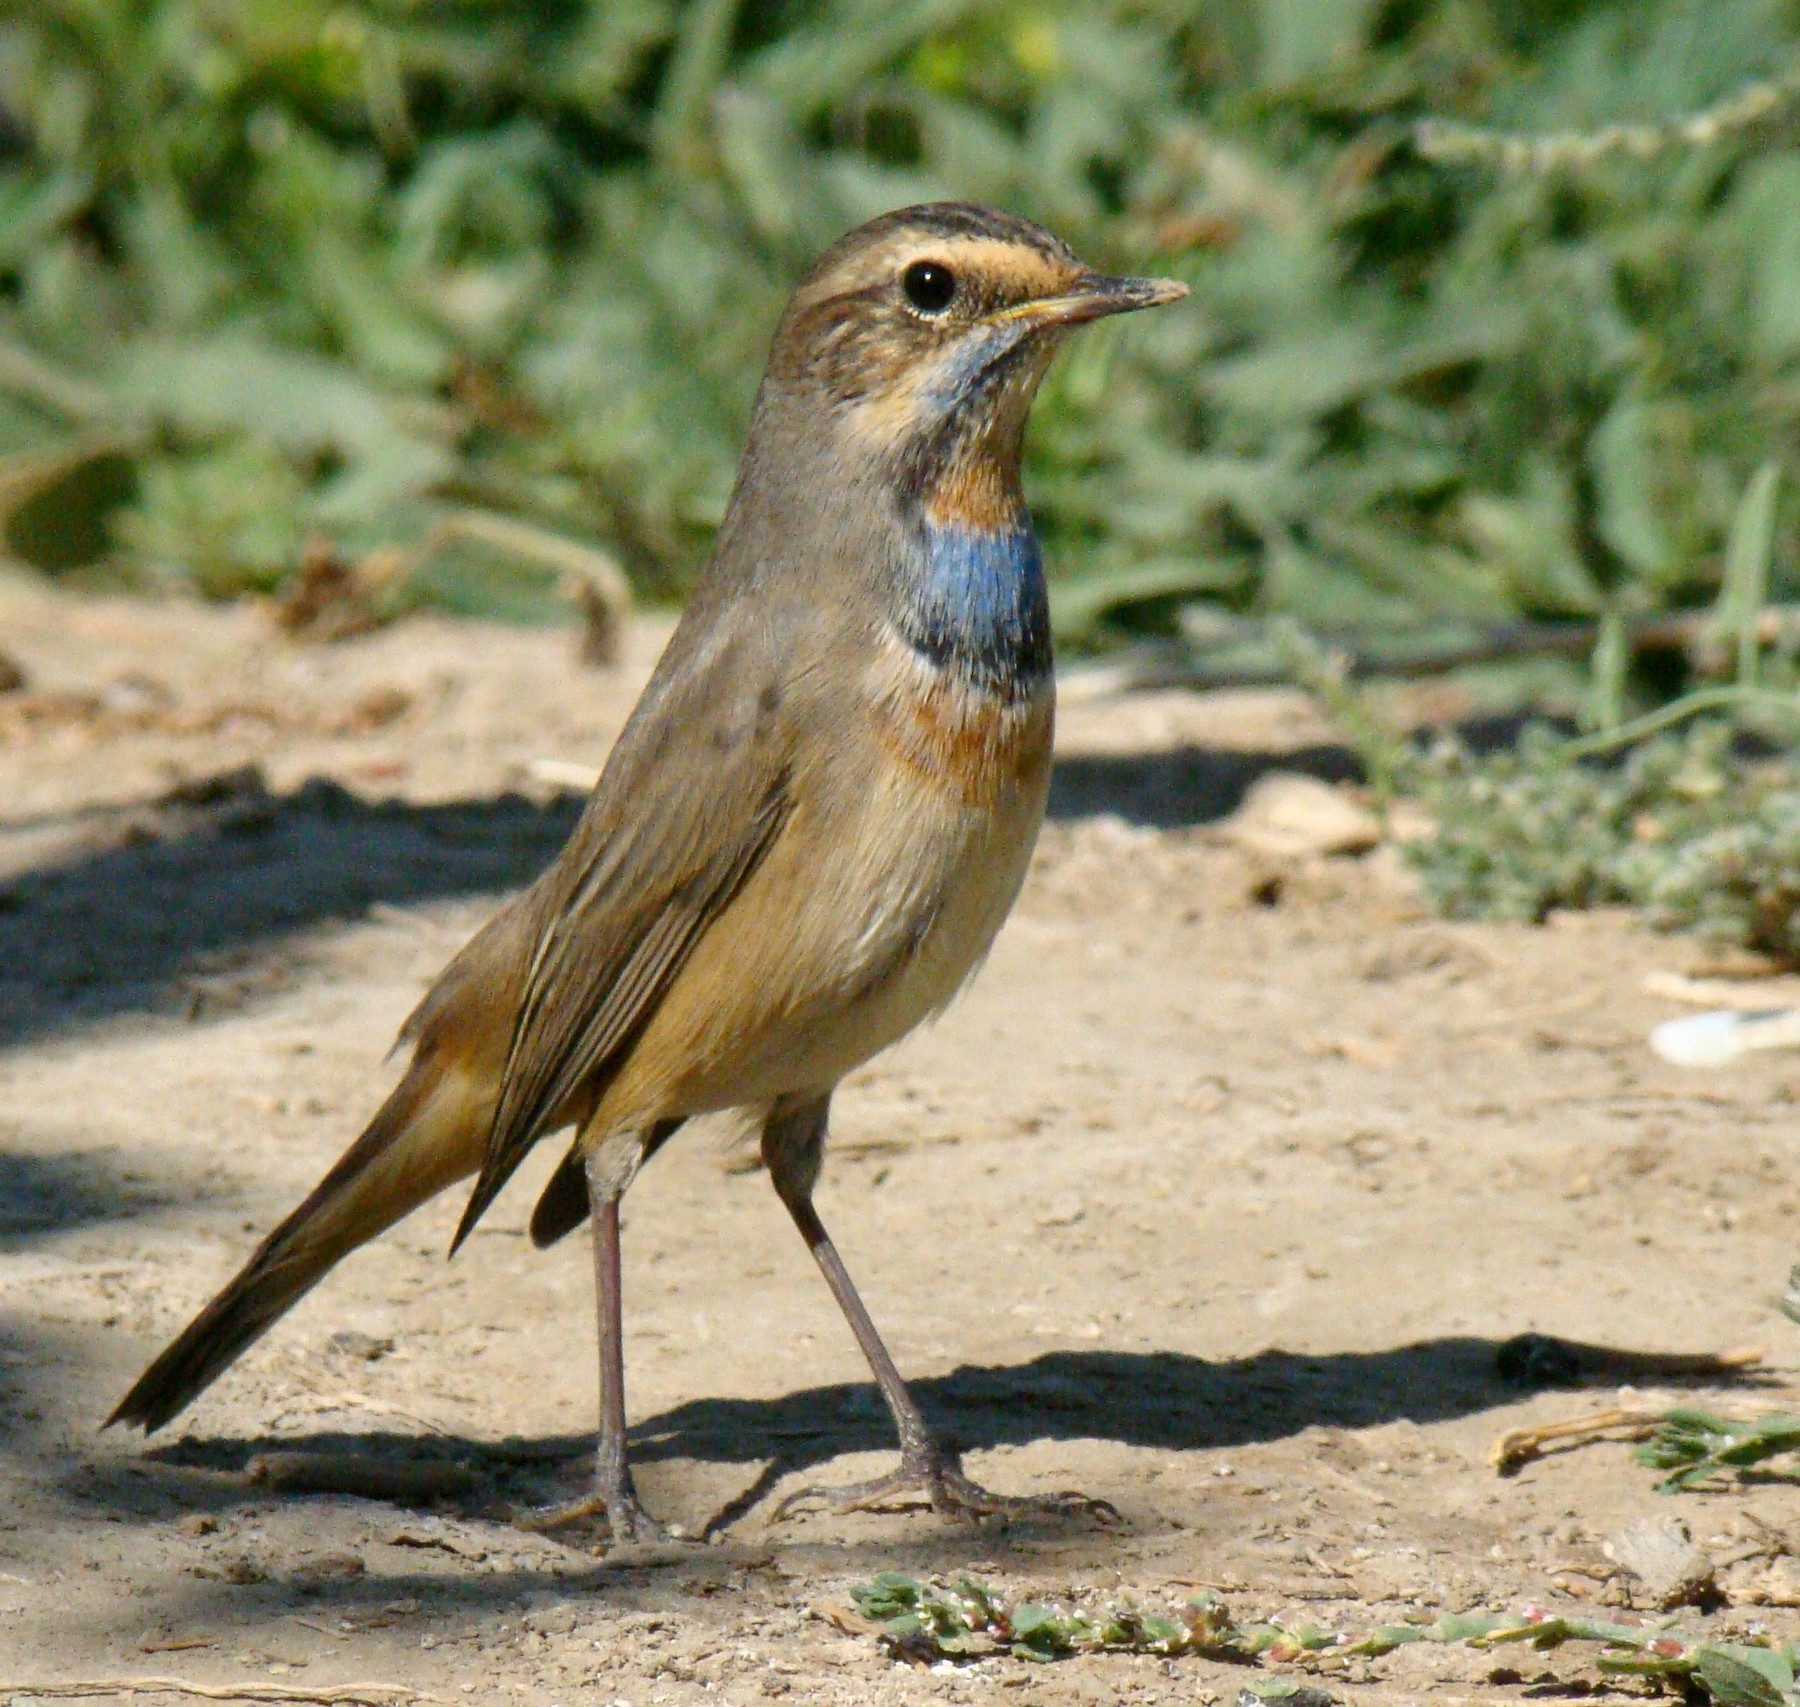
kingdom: Animalia
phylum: Chordata
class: Aves
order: Passeriformes
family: Muscicapidae
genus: Luscinia
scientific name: Luscinia svecica
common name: Bluethroat
